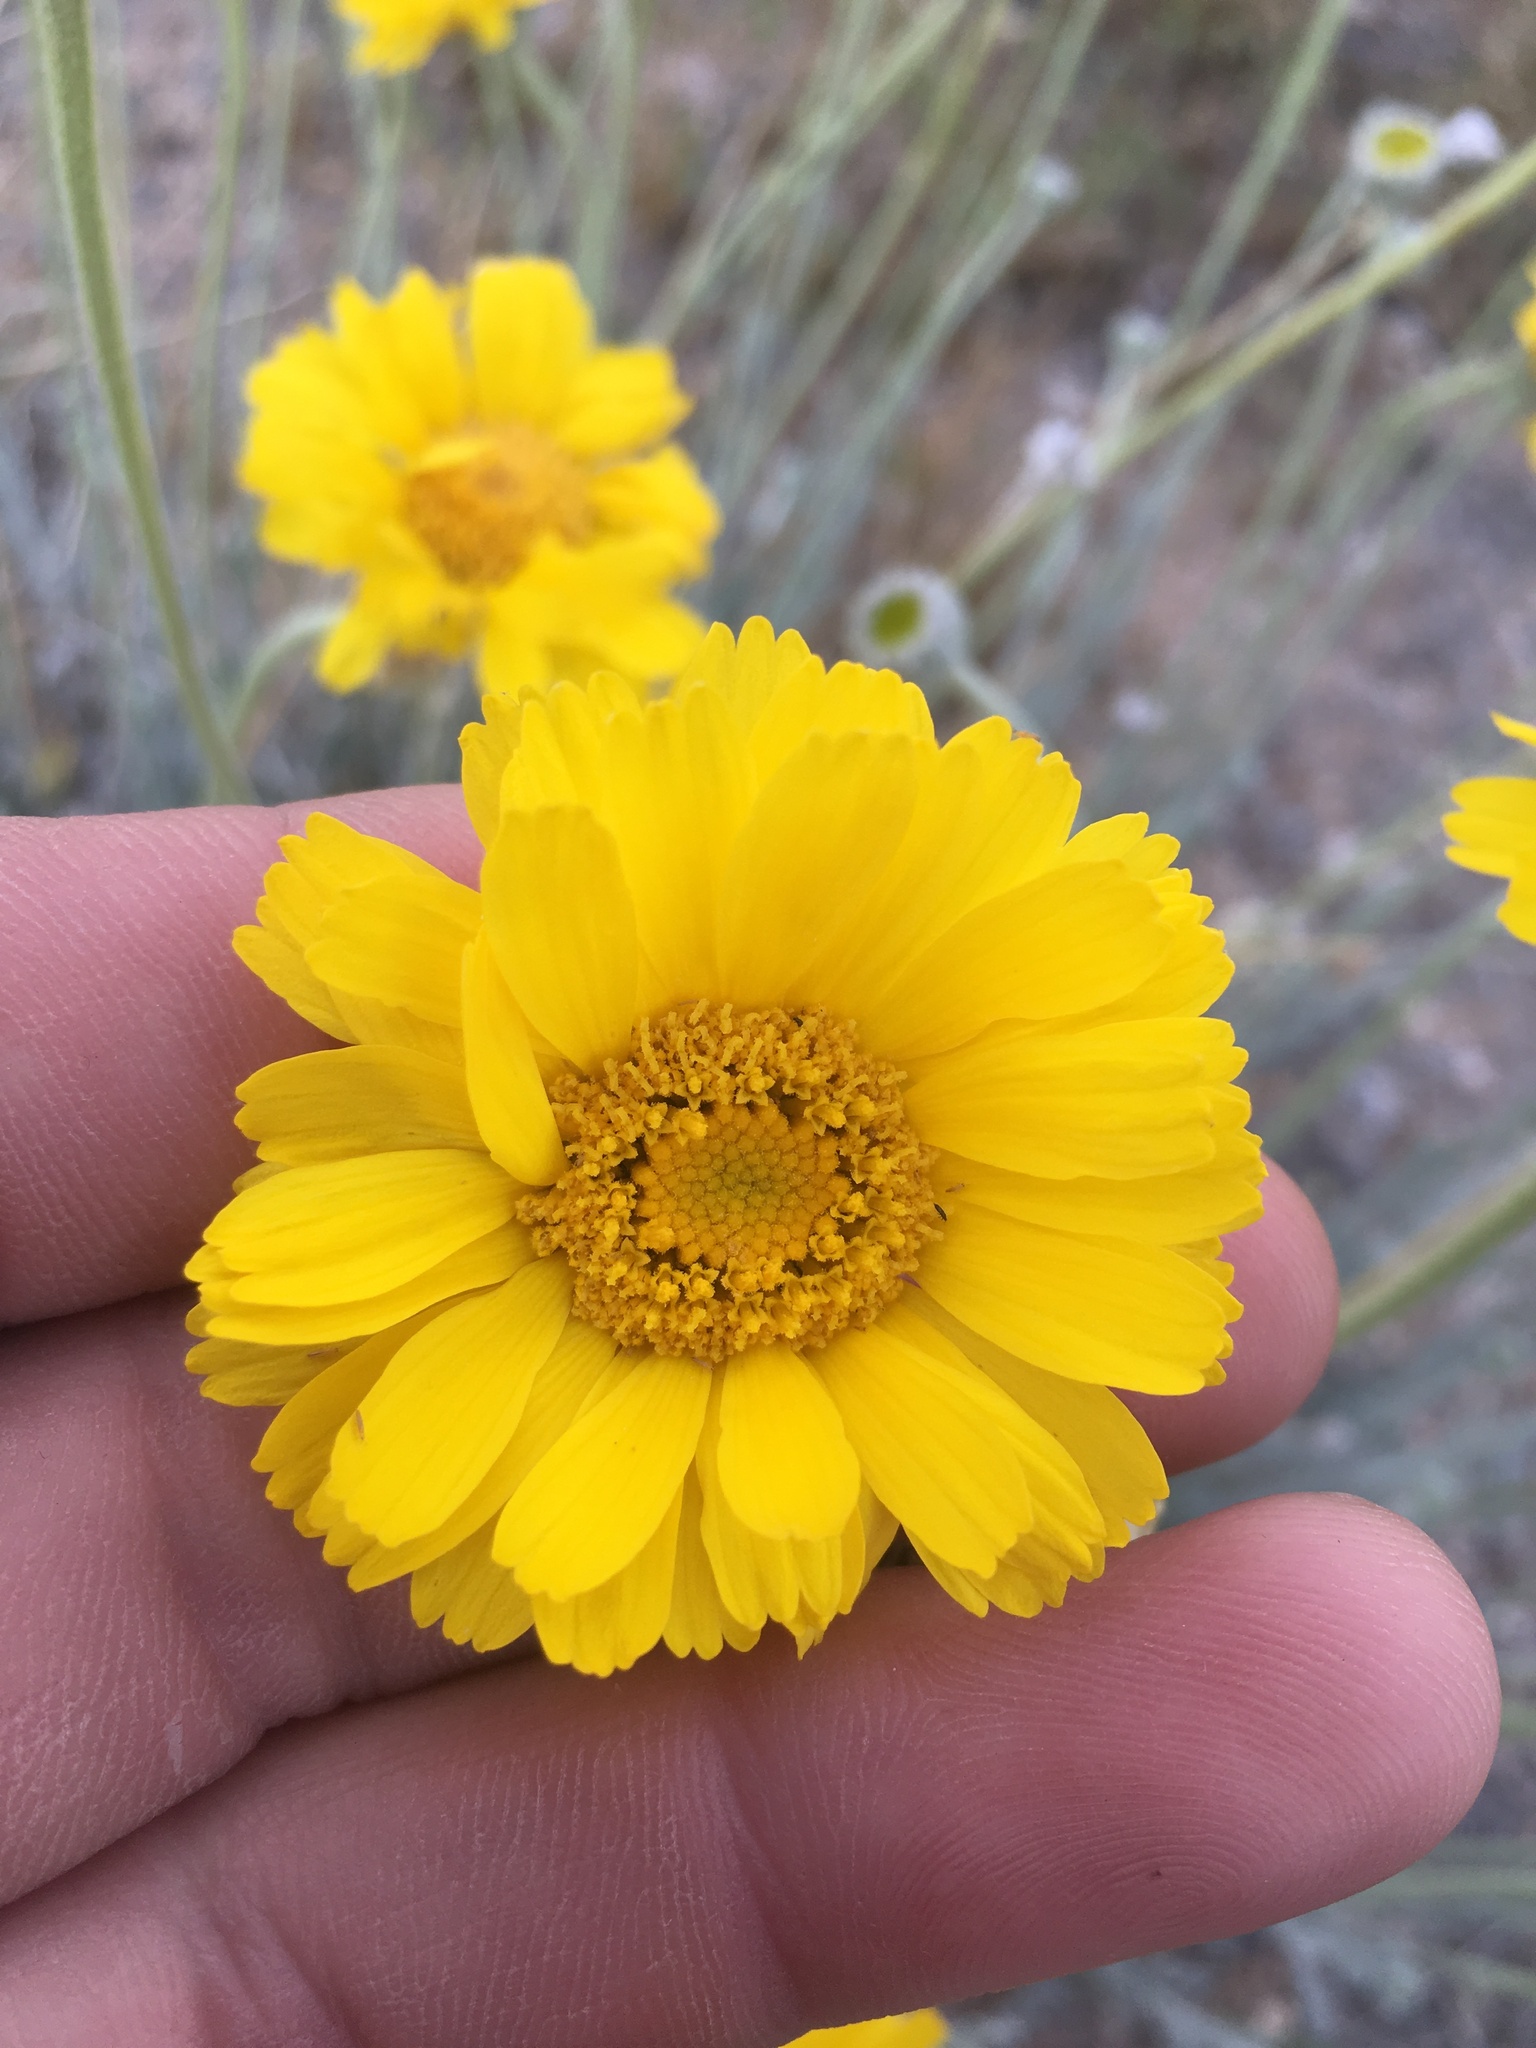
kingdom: Plantae
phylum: Tracheophyta
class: Magnoliopsida
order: Asterales
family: Asteraceae
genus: Baileya
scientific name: Baileya multiradiata
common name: Desert-marigold
